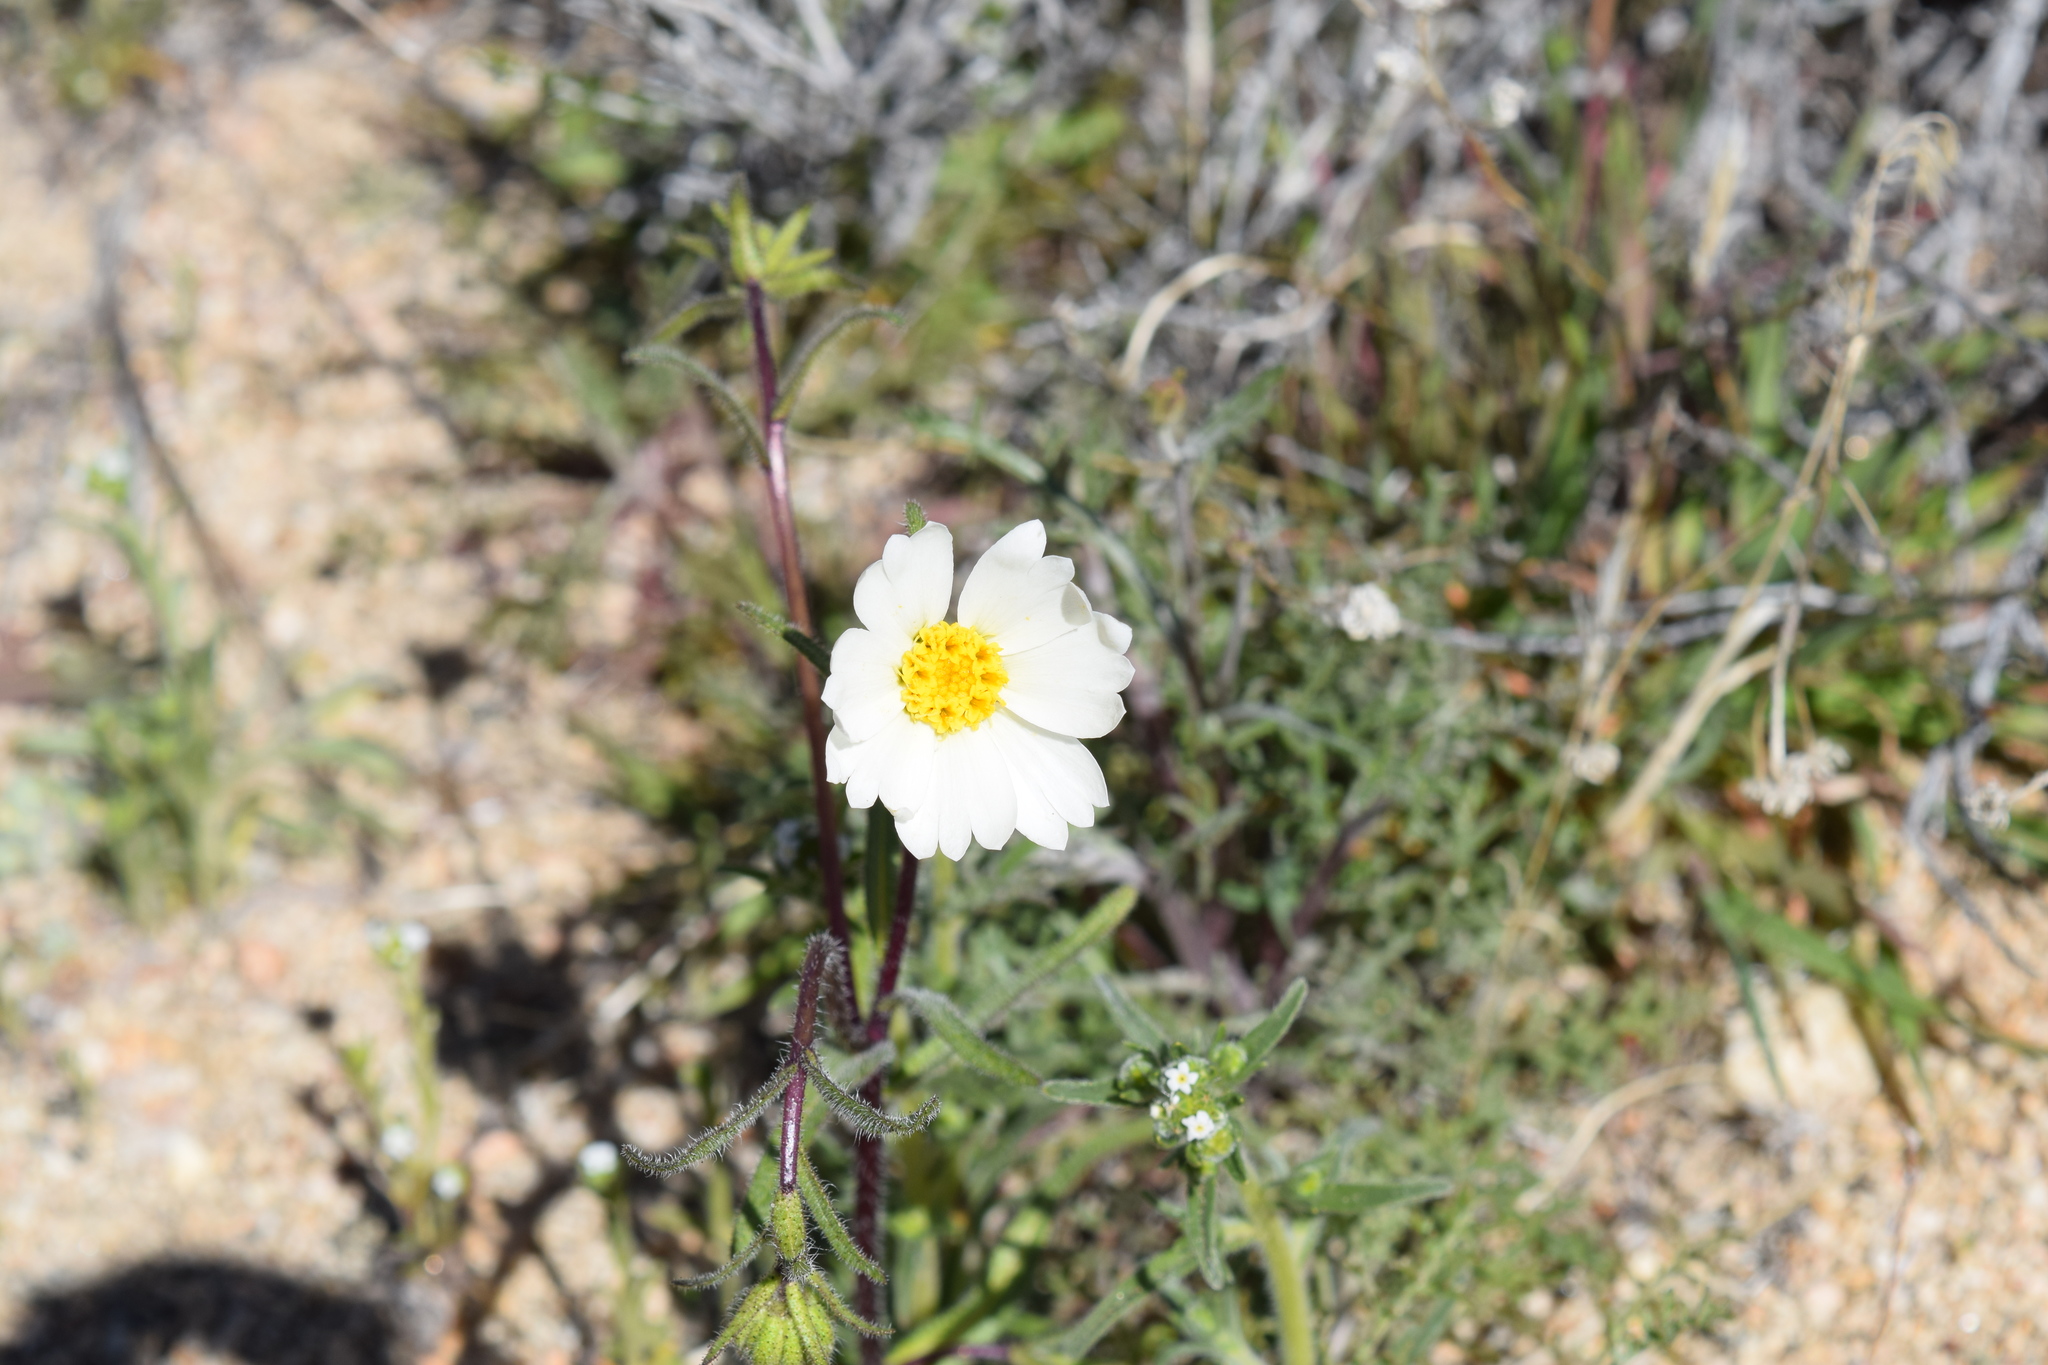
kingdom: Plantae
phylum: Tracheophyta
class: Magnoliopsida
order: Asterales
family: Asteraceae
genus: Layia
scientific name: Layia glandulosa
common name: White layia
